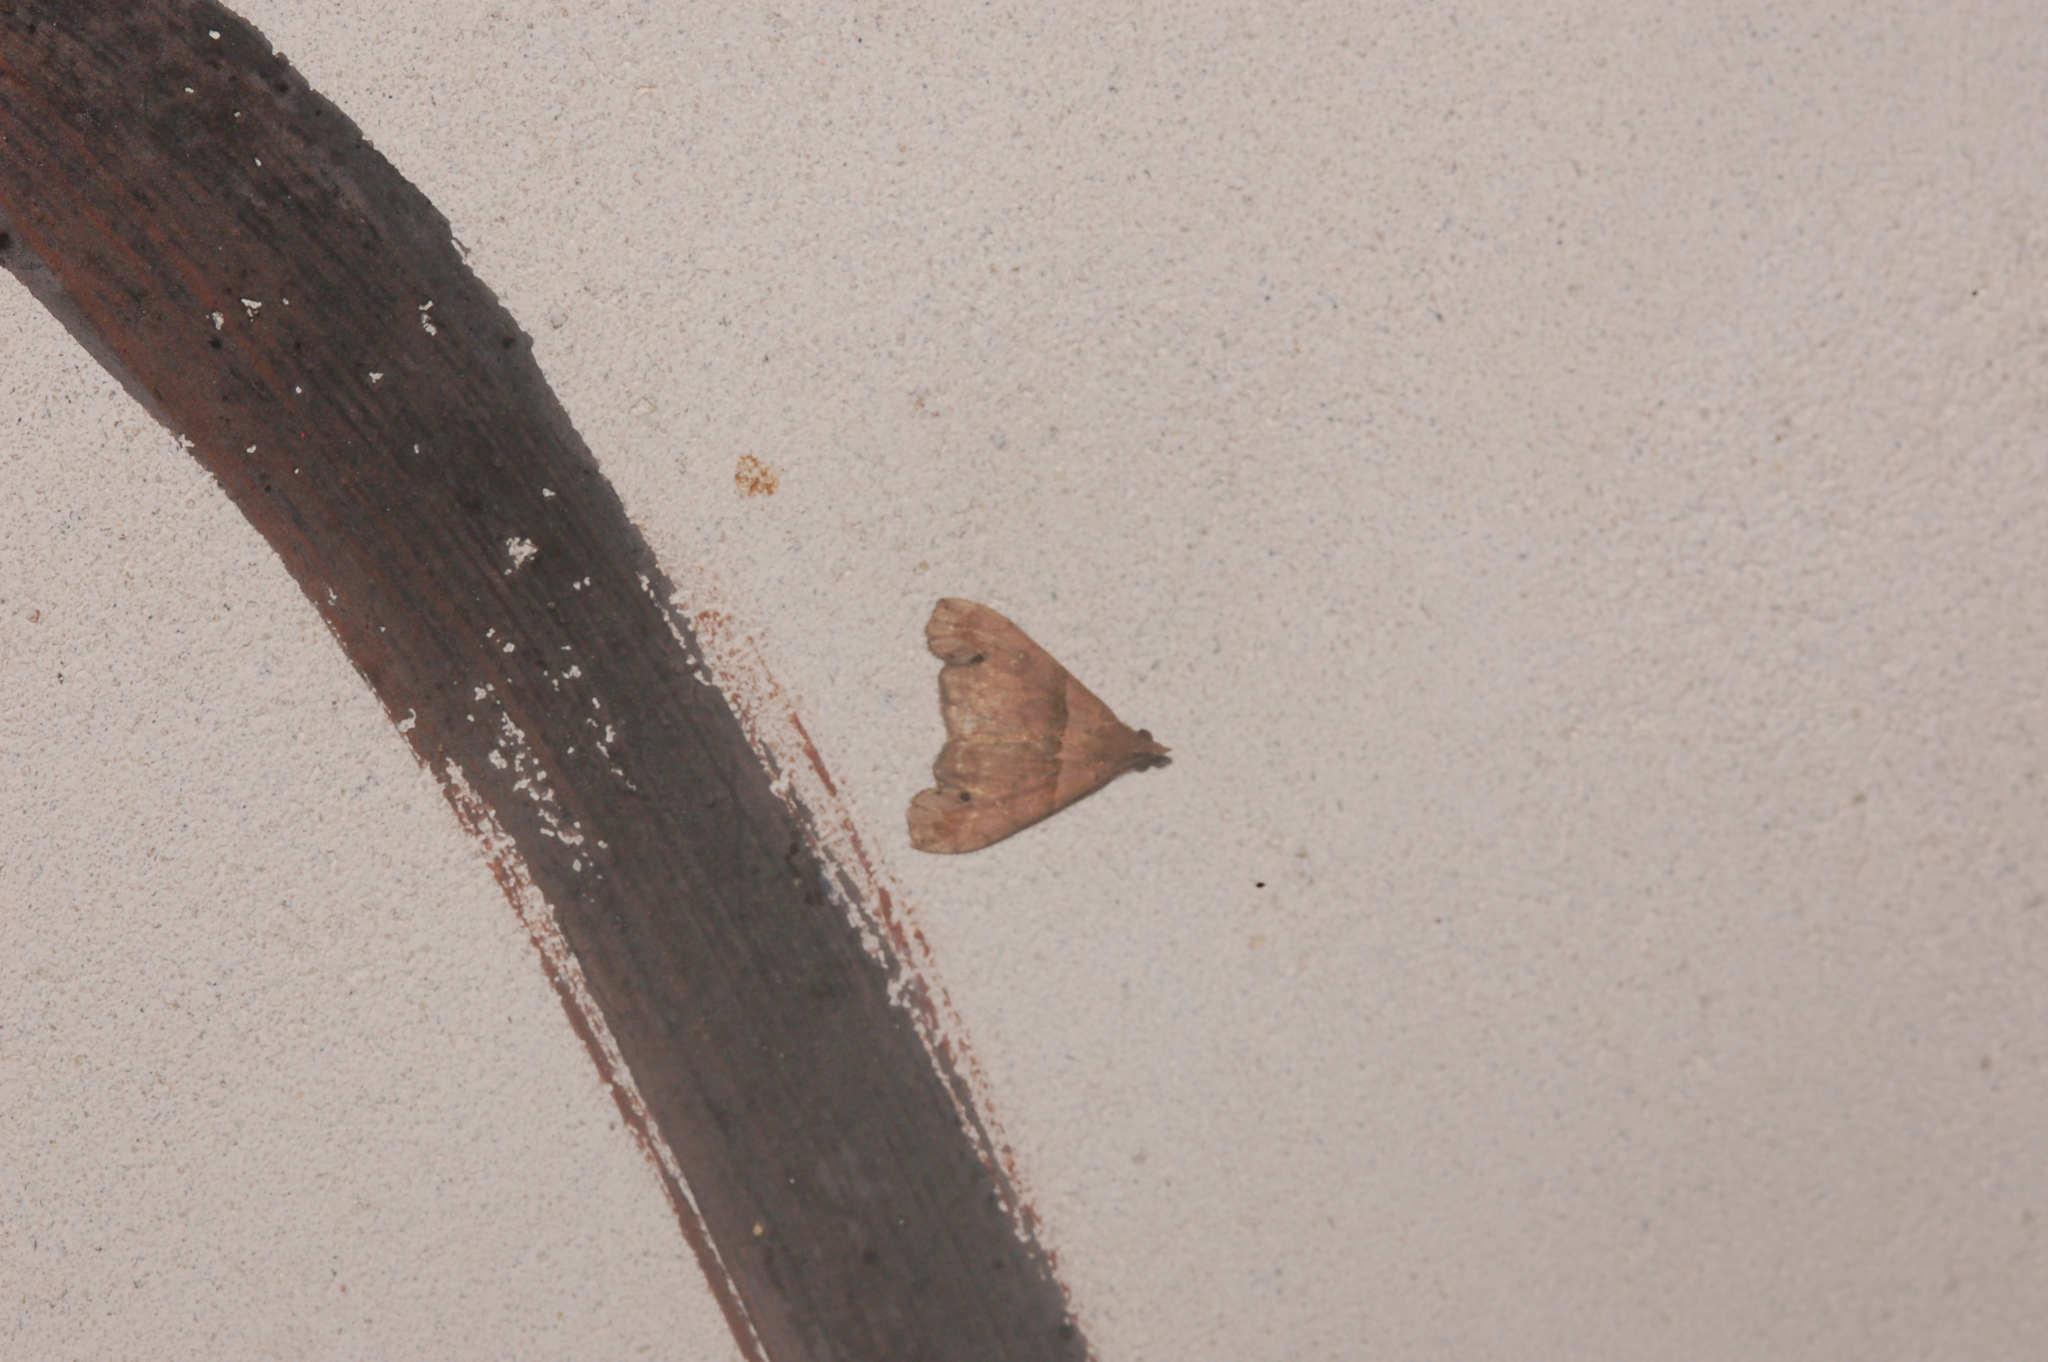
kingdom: Animalia
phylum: Arthropoda
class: Insecta
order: Lepidoptera
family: Erebidae
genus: Lascoria
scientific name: Lascoria ambigualis
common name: Ambiguous moth
